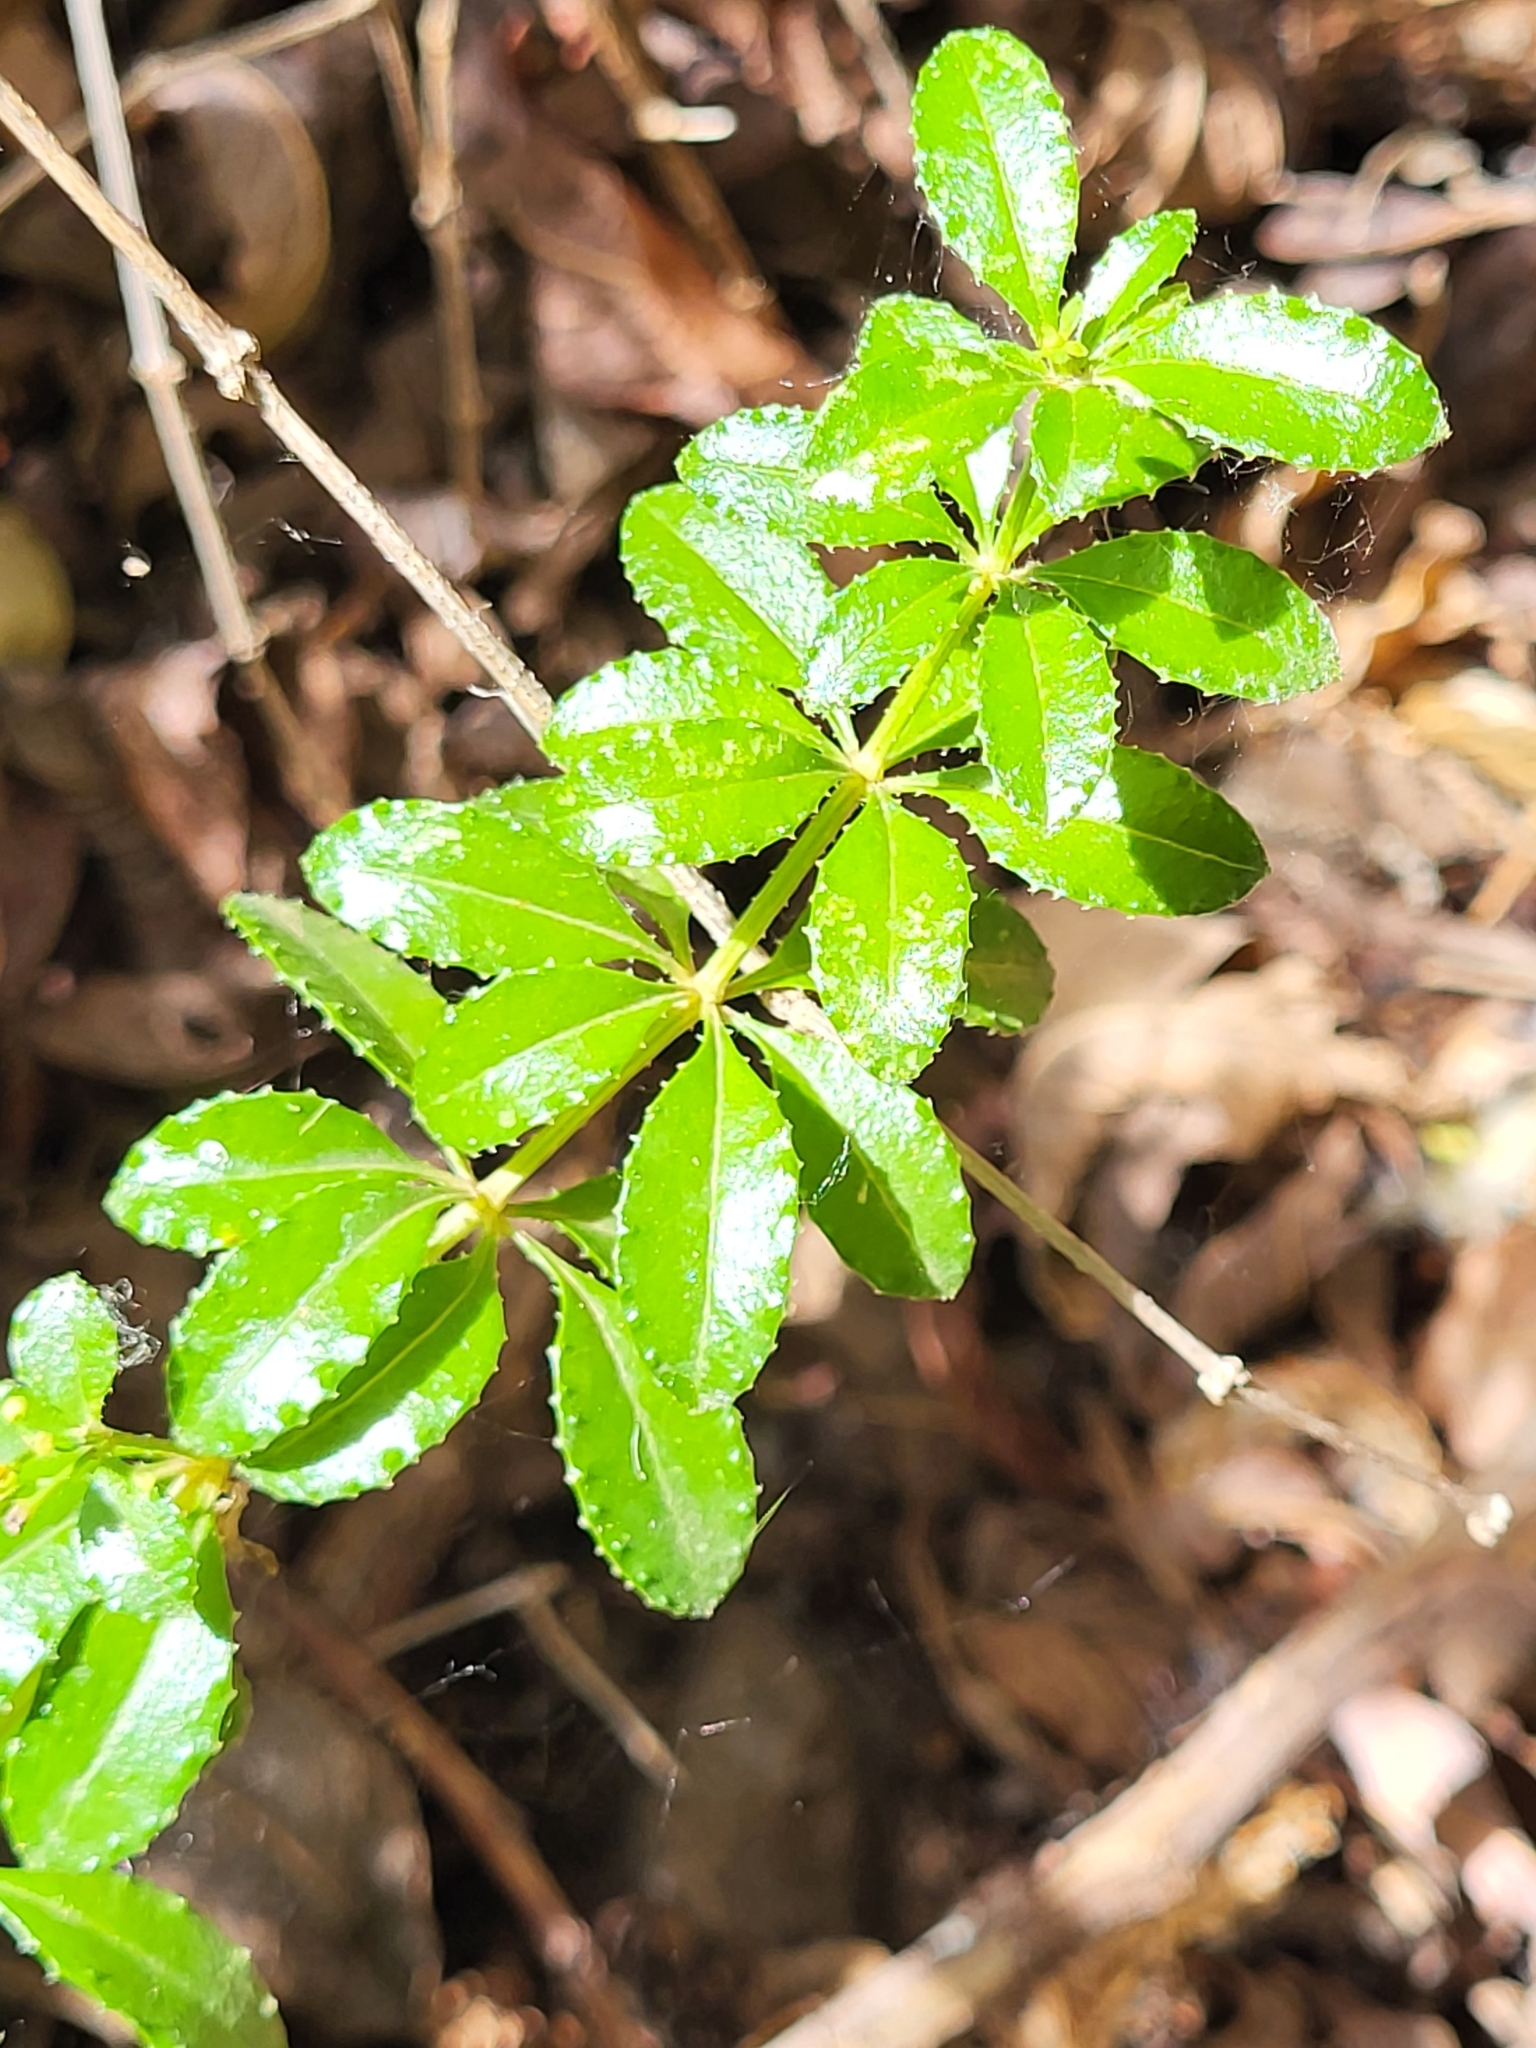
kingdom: Plantae
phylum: Tracheophyta
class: Magnoliopsida
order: Gentianales
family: Rubiaceae
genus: Rubia
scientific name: Rubia fruticosa
